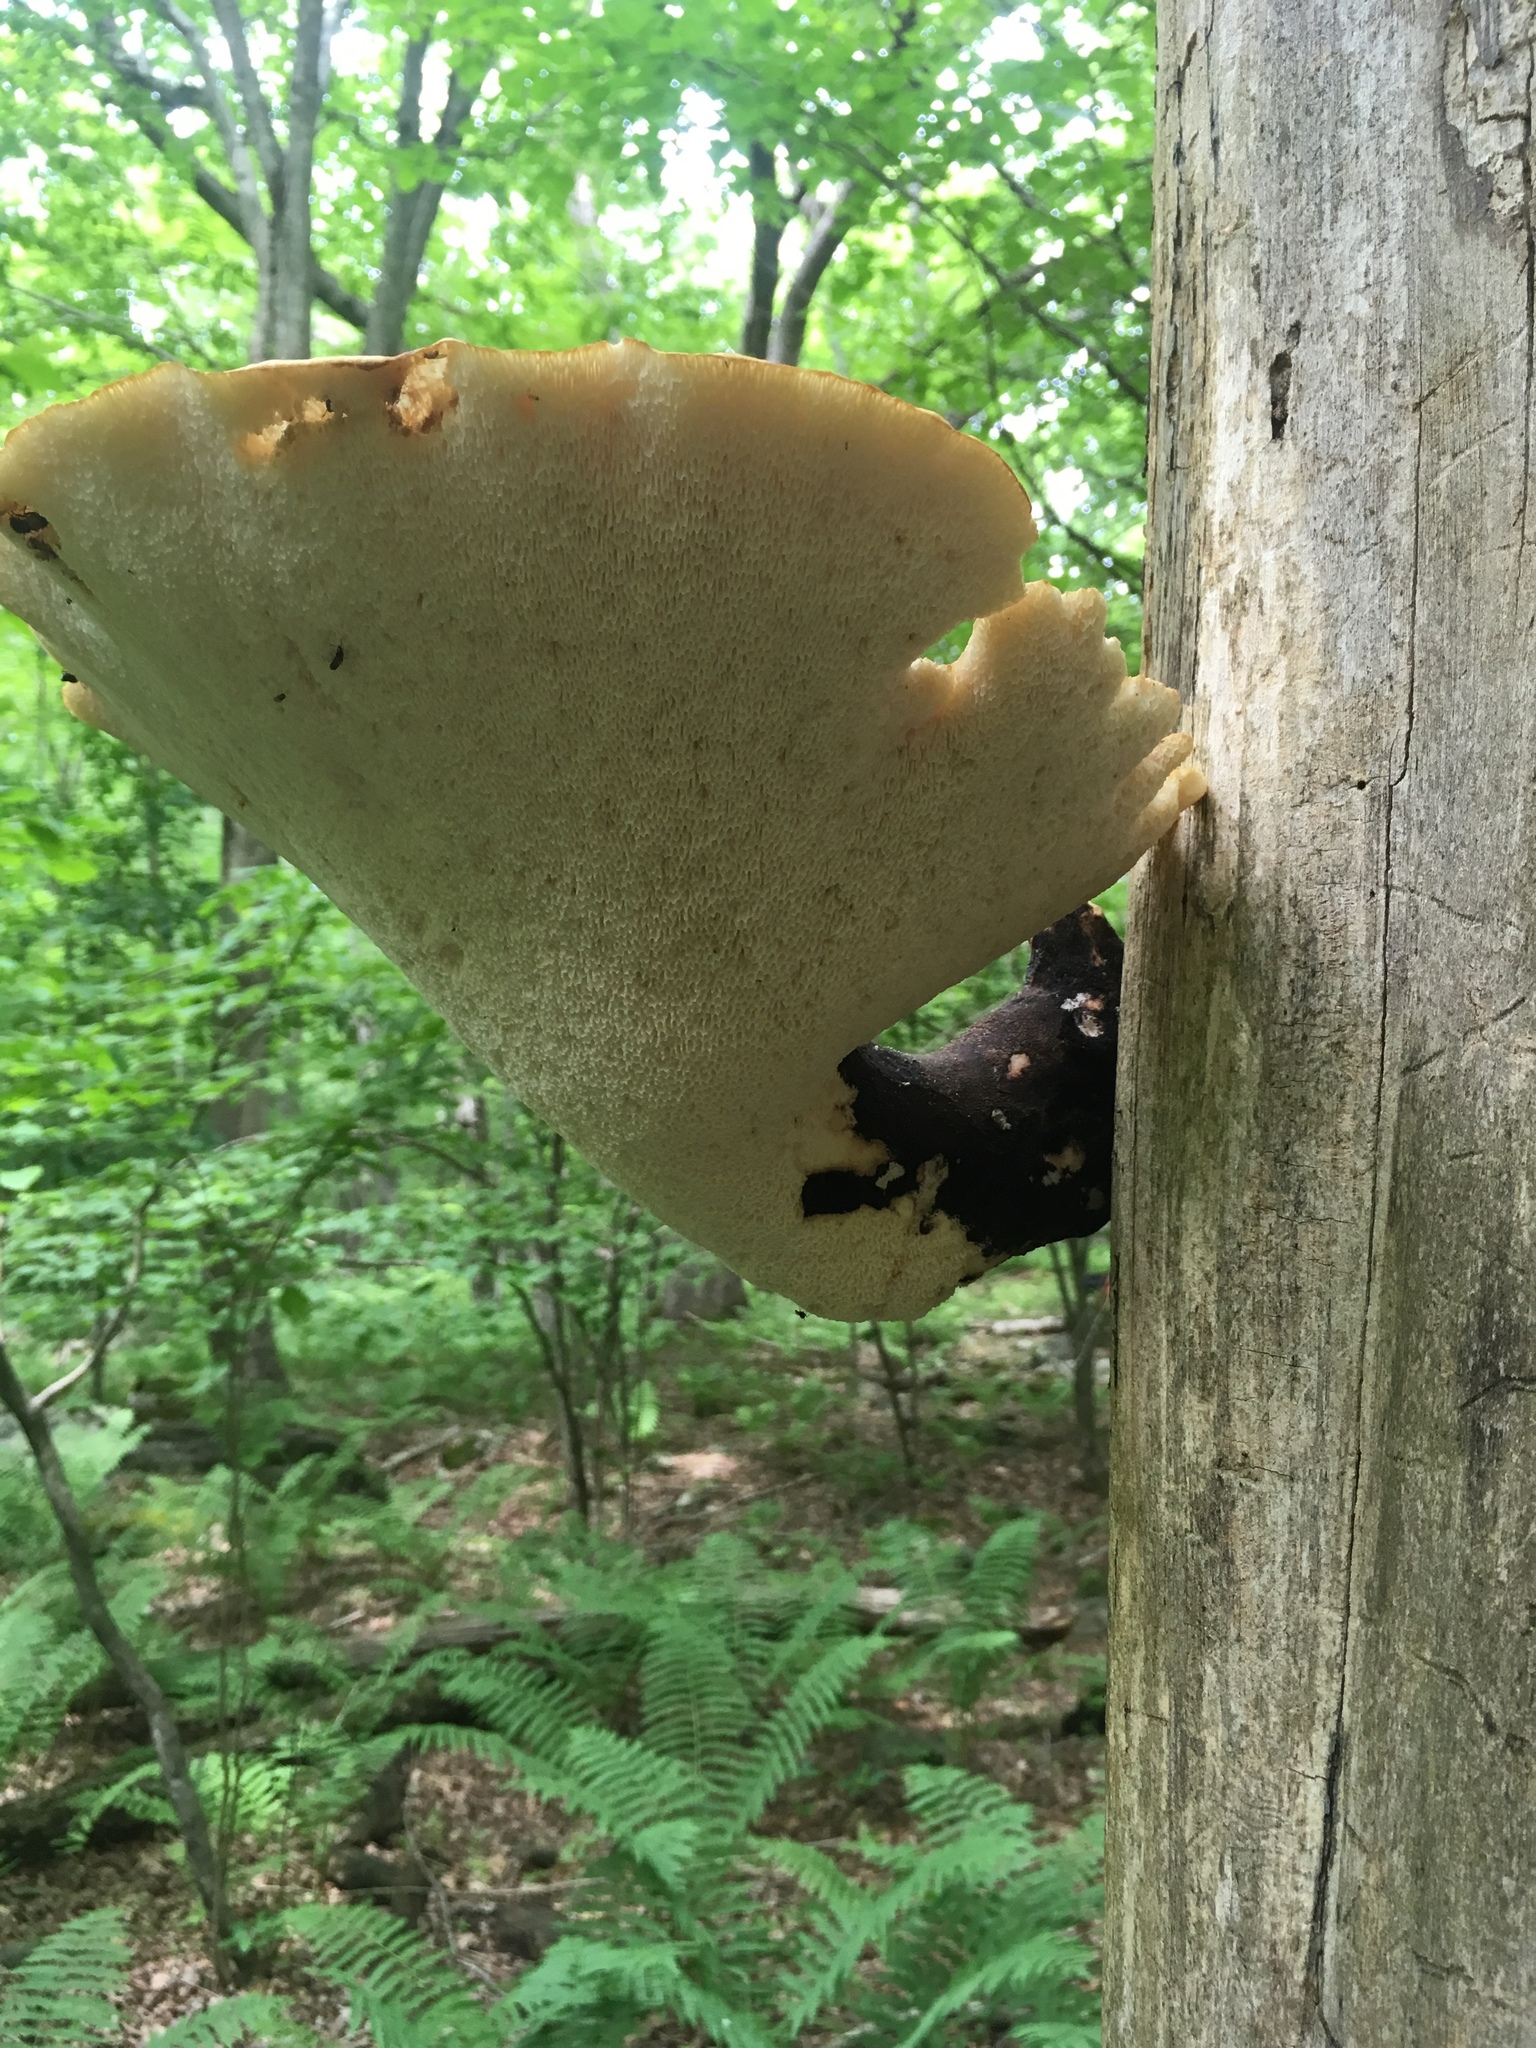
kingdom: Fungi
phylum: Basidiomycota
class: Agaricomycetes
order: Polyporales
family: Polyporaceae
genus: Cerioporus
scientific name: Cerioporus squamosus
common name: Dryad's saddle
